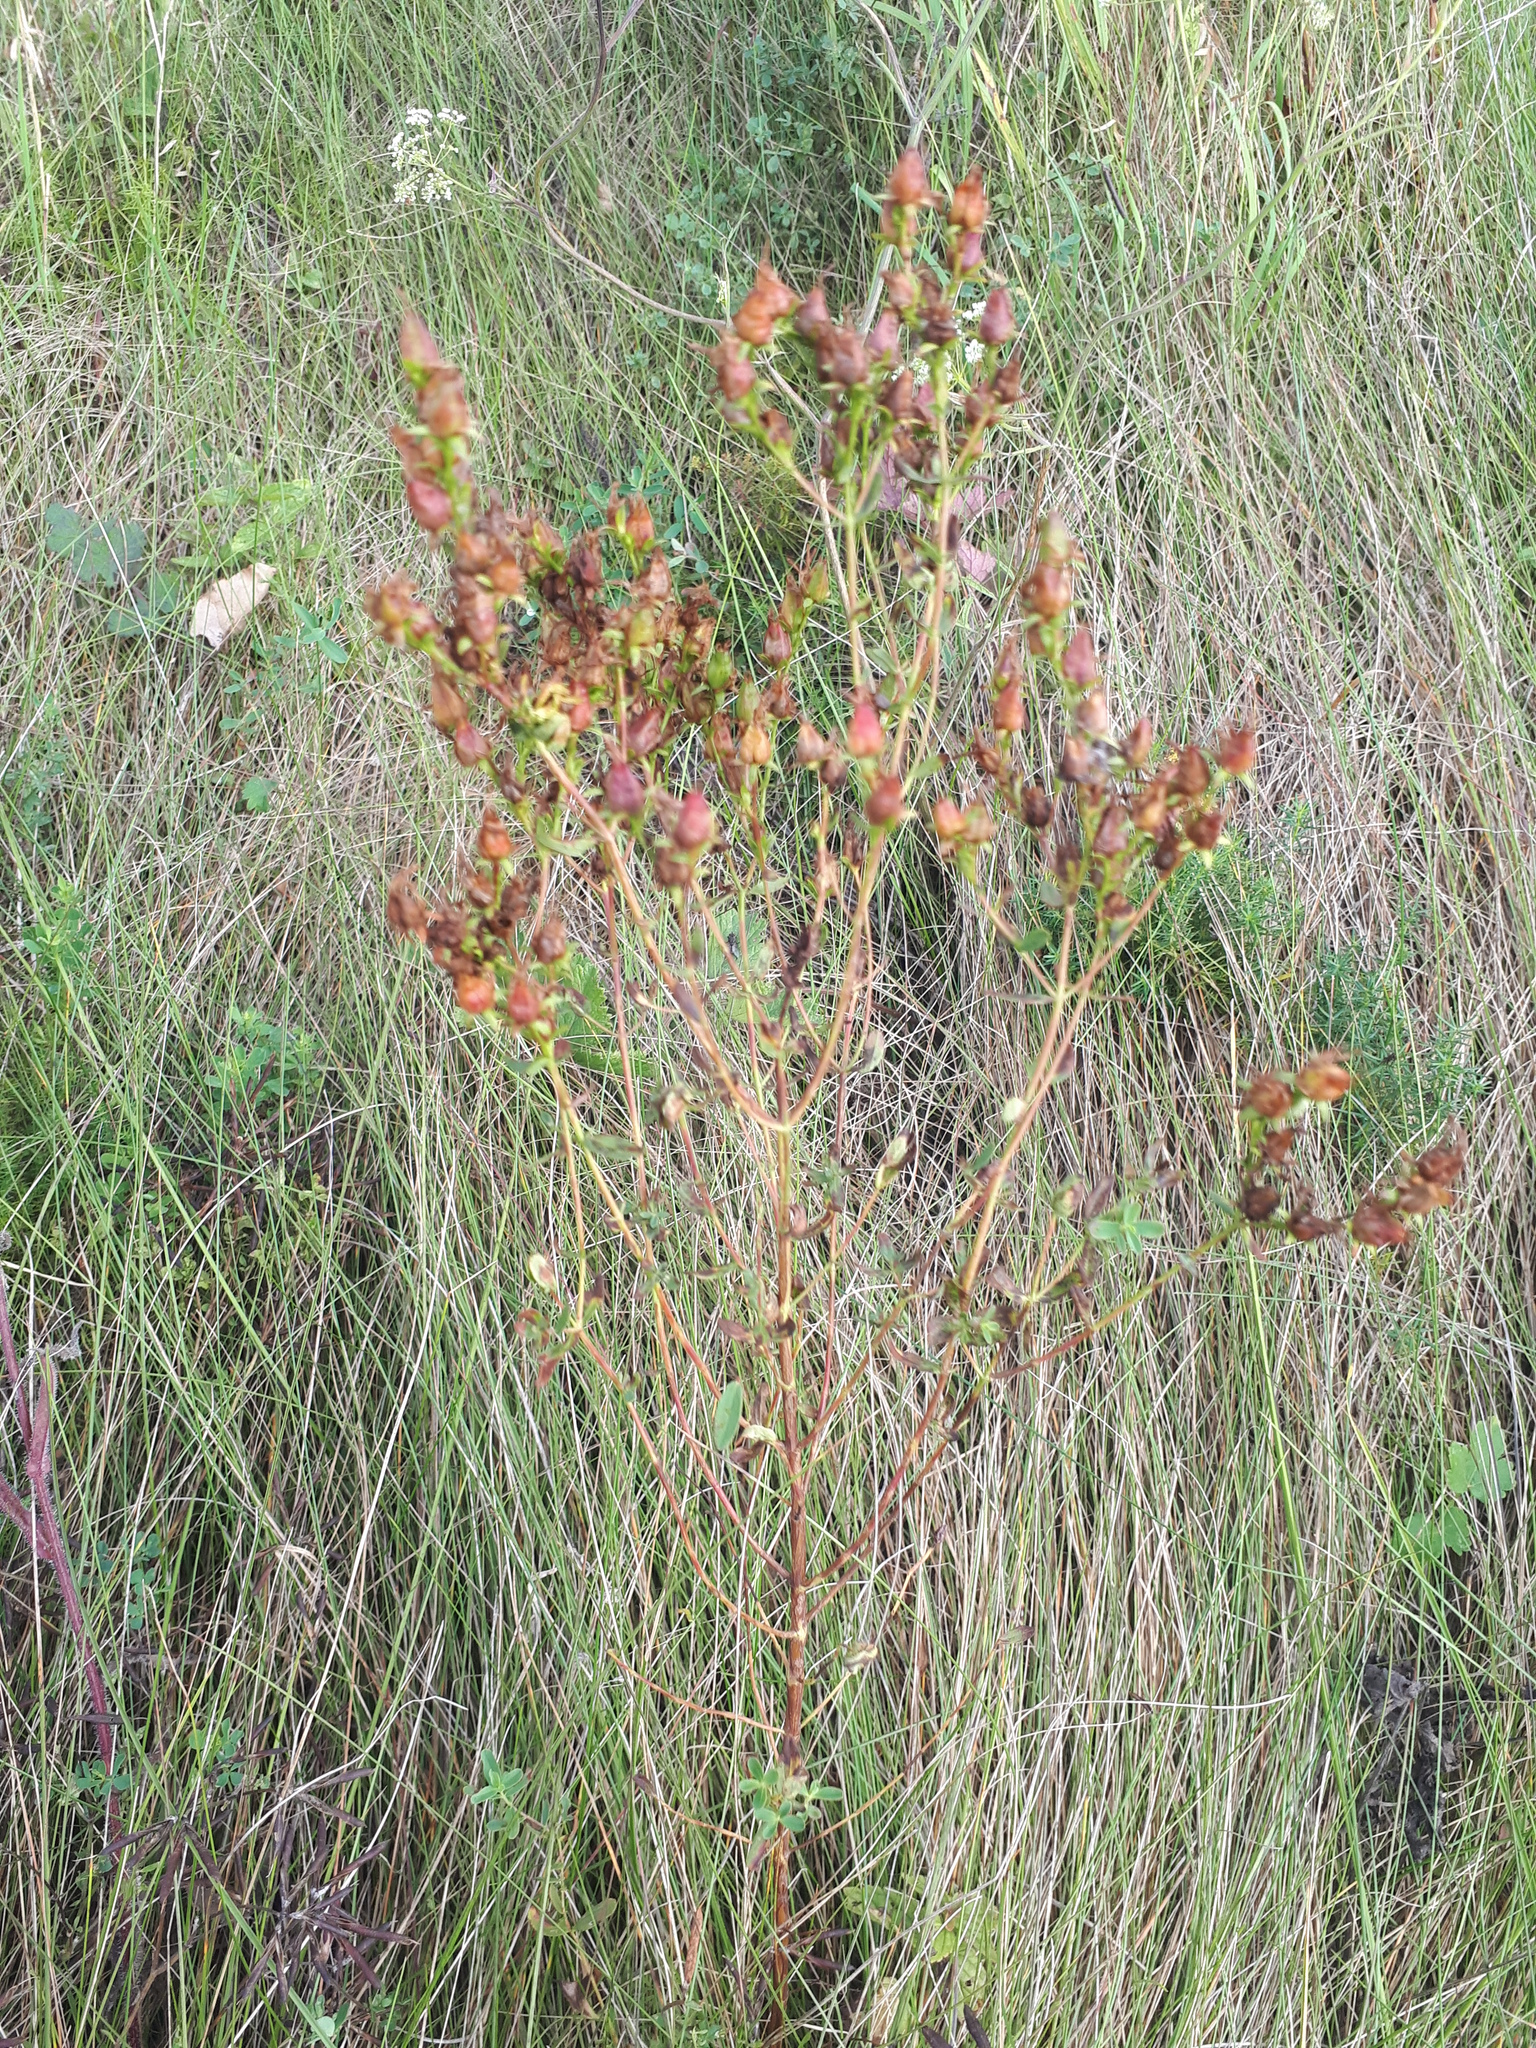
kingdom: Plantae
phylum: Tracheophyta
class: Magnoliopsida
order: Malpighiales
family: Hypericaceae
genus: Hypericum
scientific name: Hypericum perforatum
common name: Common st. johnswort
